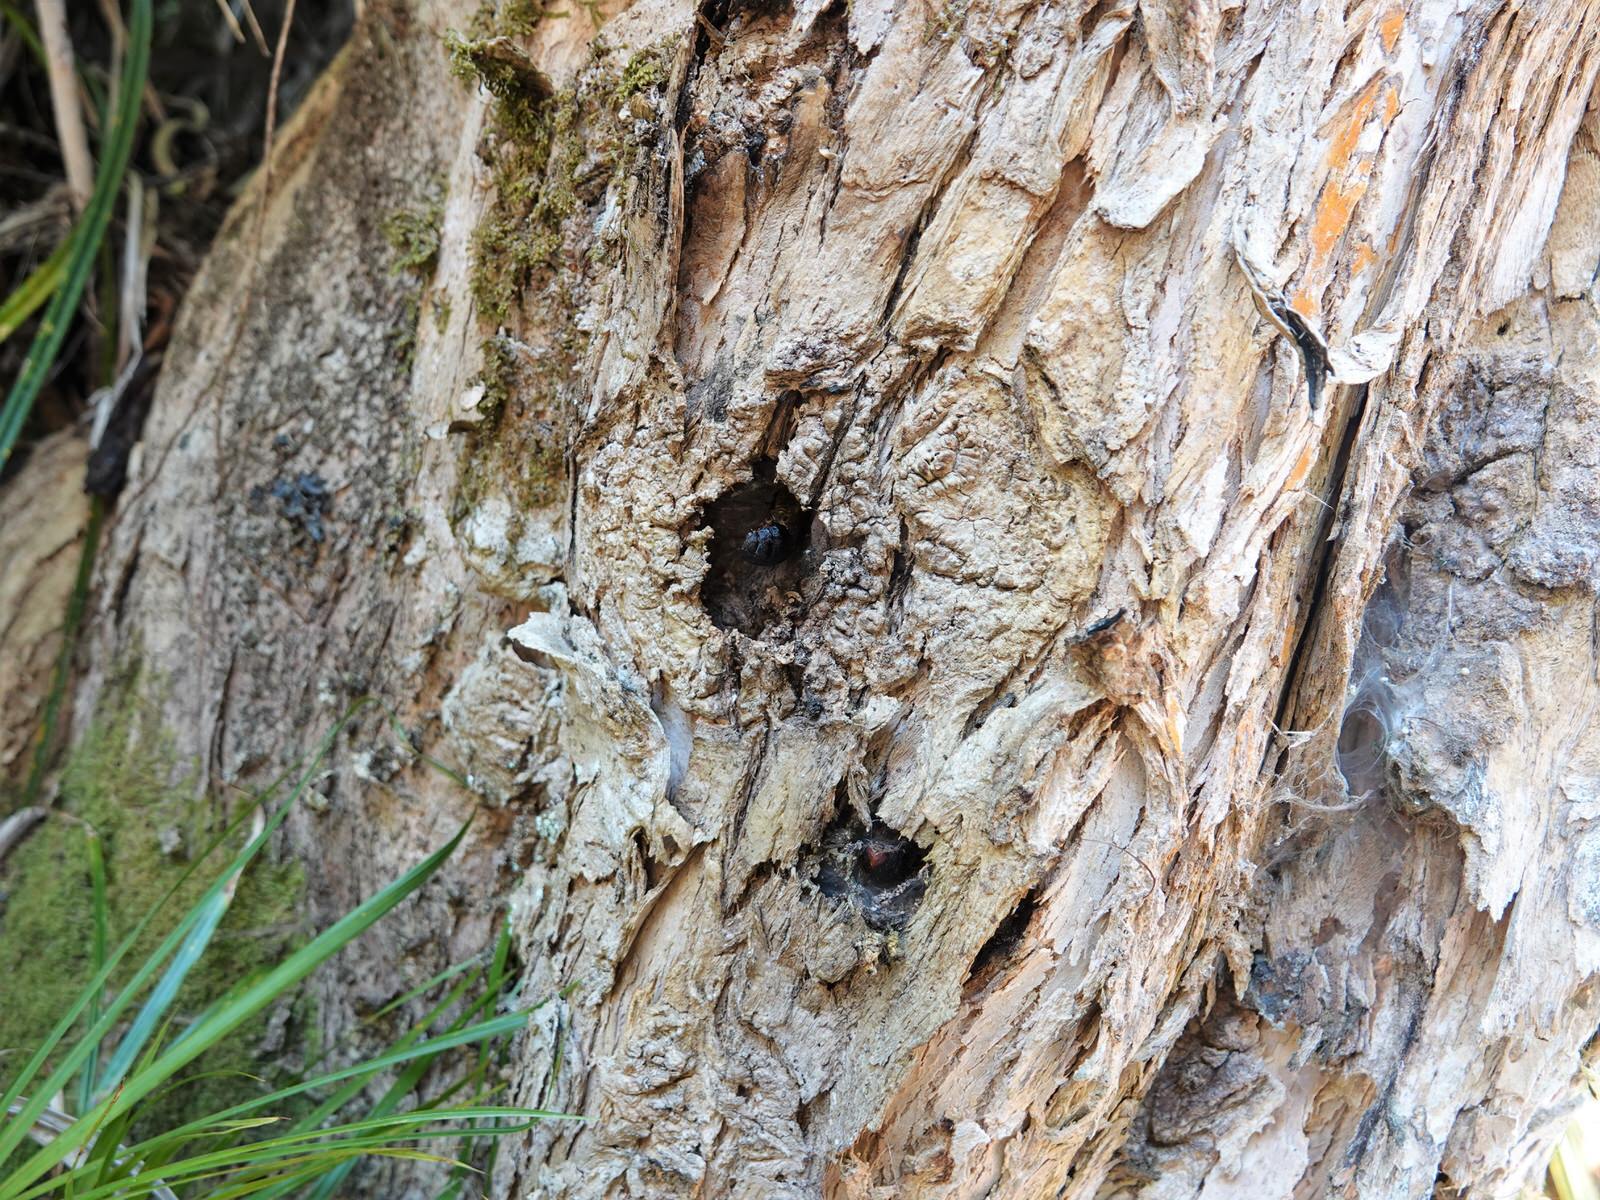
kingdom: Animalia
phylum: Arthropoda
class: Insecta
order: Lepidoptera
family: Hepialidae
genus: Aenetus
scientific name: Aenetus virescens
